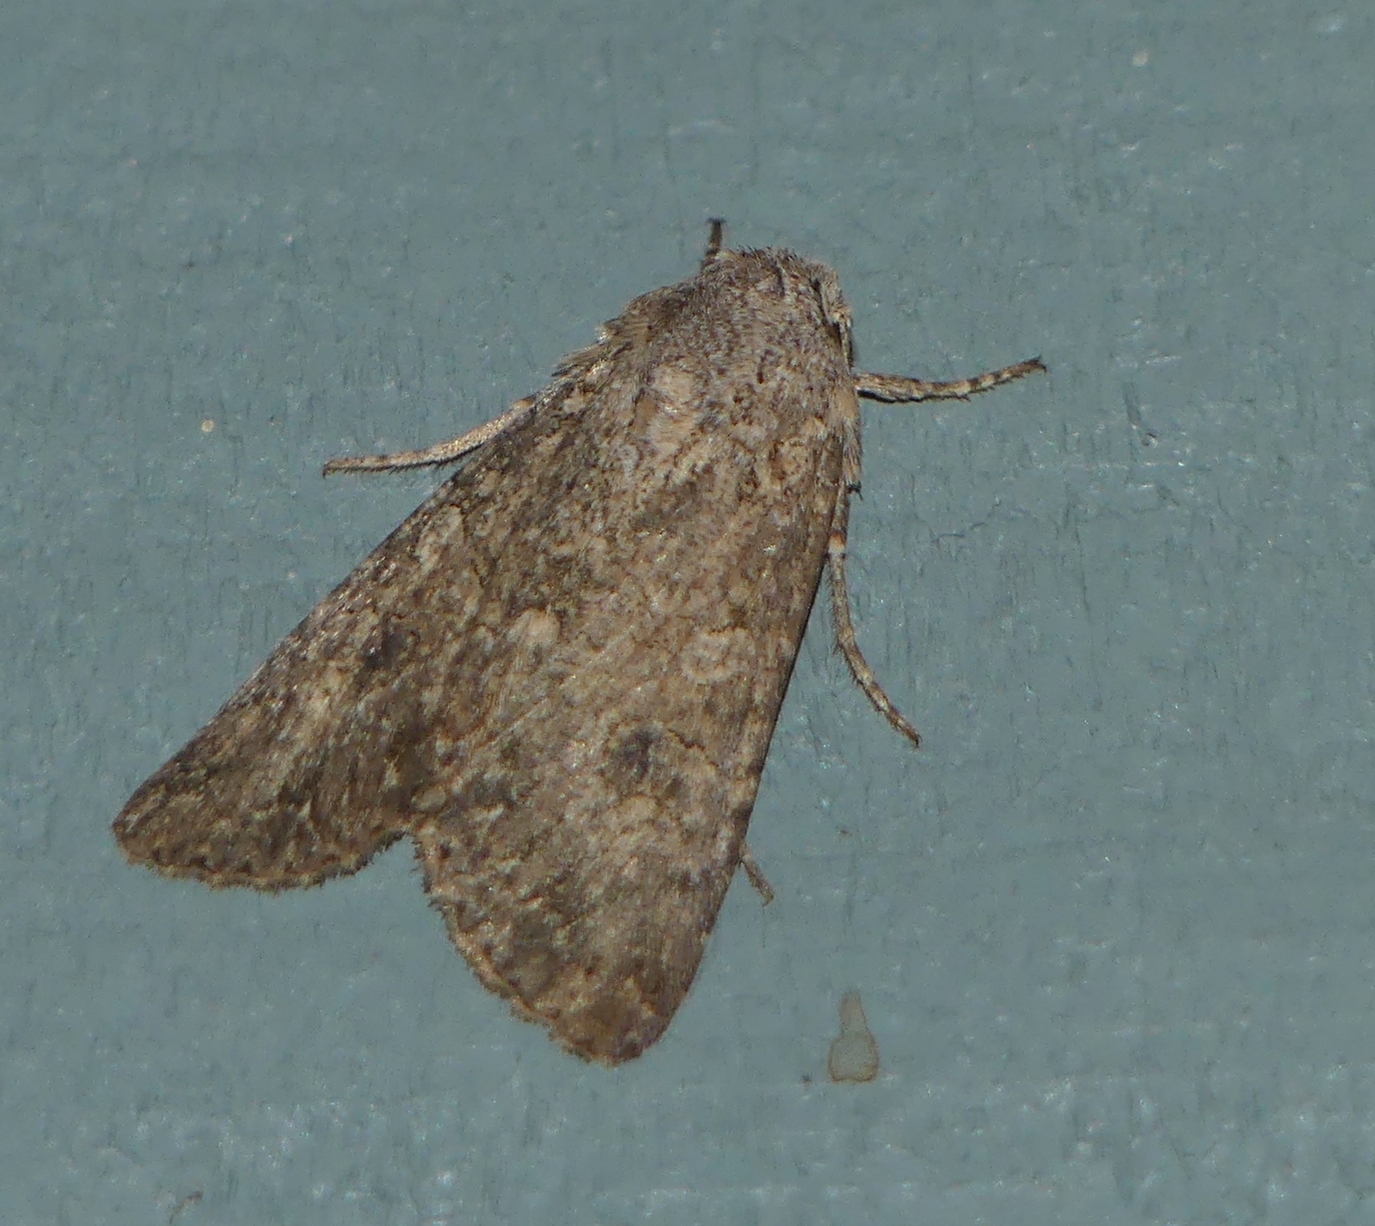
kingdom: Animalia
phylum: Arthropoda
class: Insecta
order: Lepidoptera
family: Noctuidae
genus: Anarta
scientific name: Anarta trifolii
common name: Clover cutworm moth
